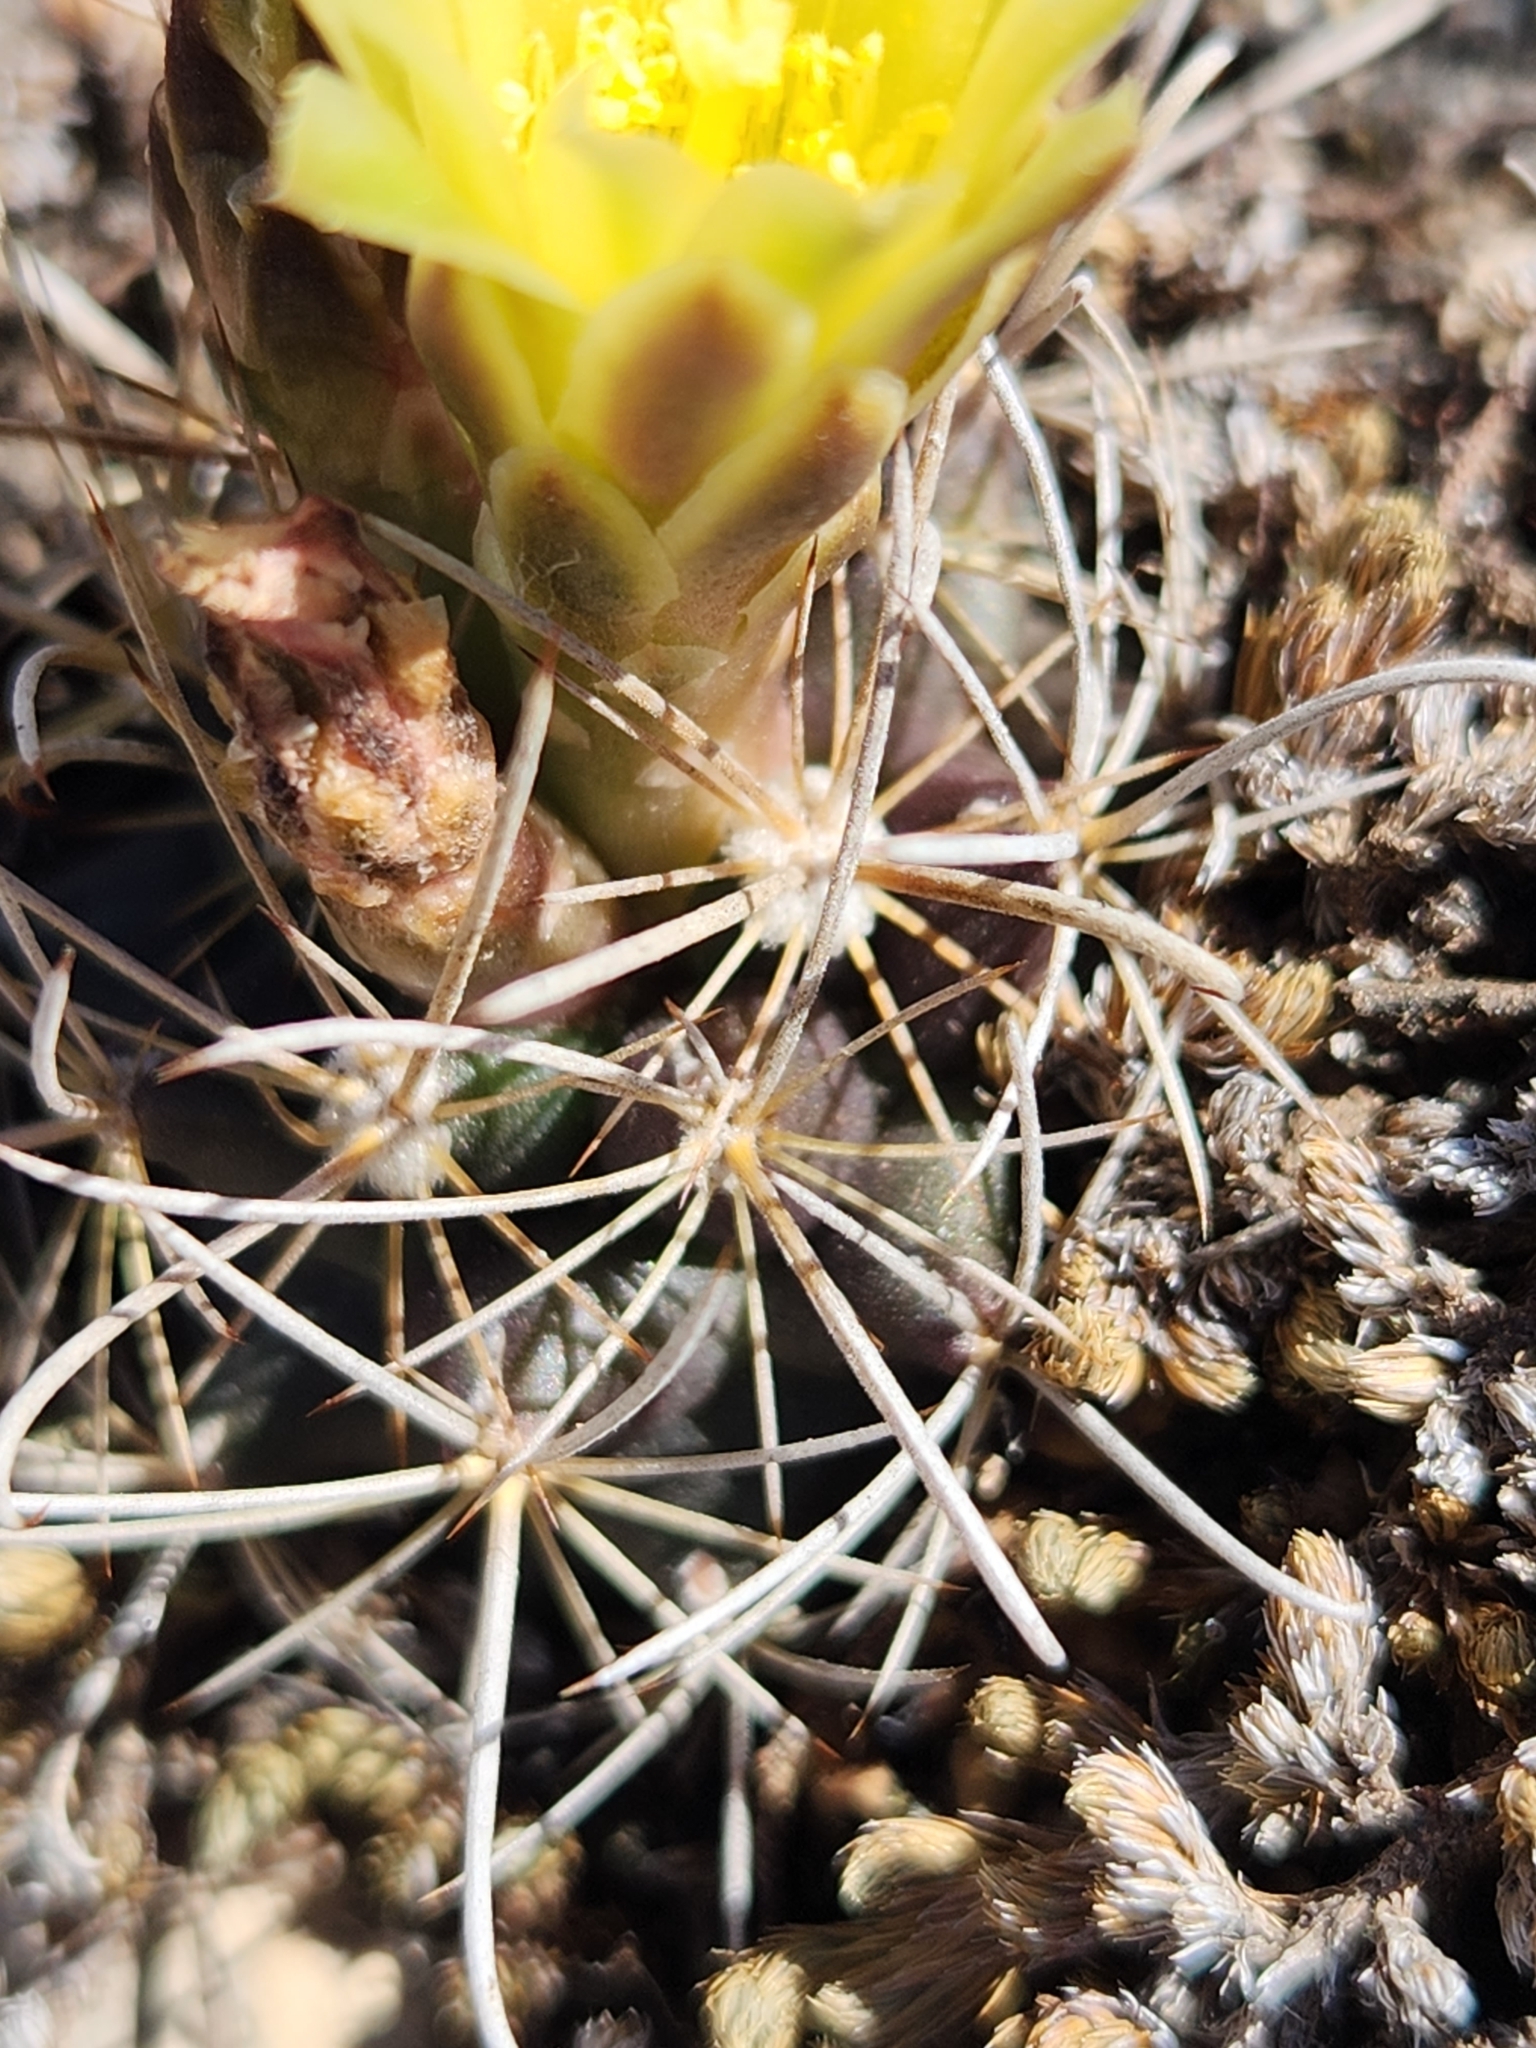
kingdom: Plantae
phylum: Tracheophyta
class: Magnoliopsida
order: Caryophyllales
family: Cactaceae
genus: Sclerocactus
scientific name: Sclerocactus brevihamatus
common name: Engelmann's fishhook cactus
